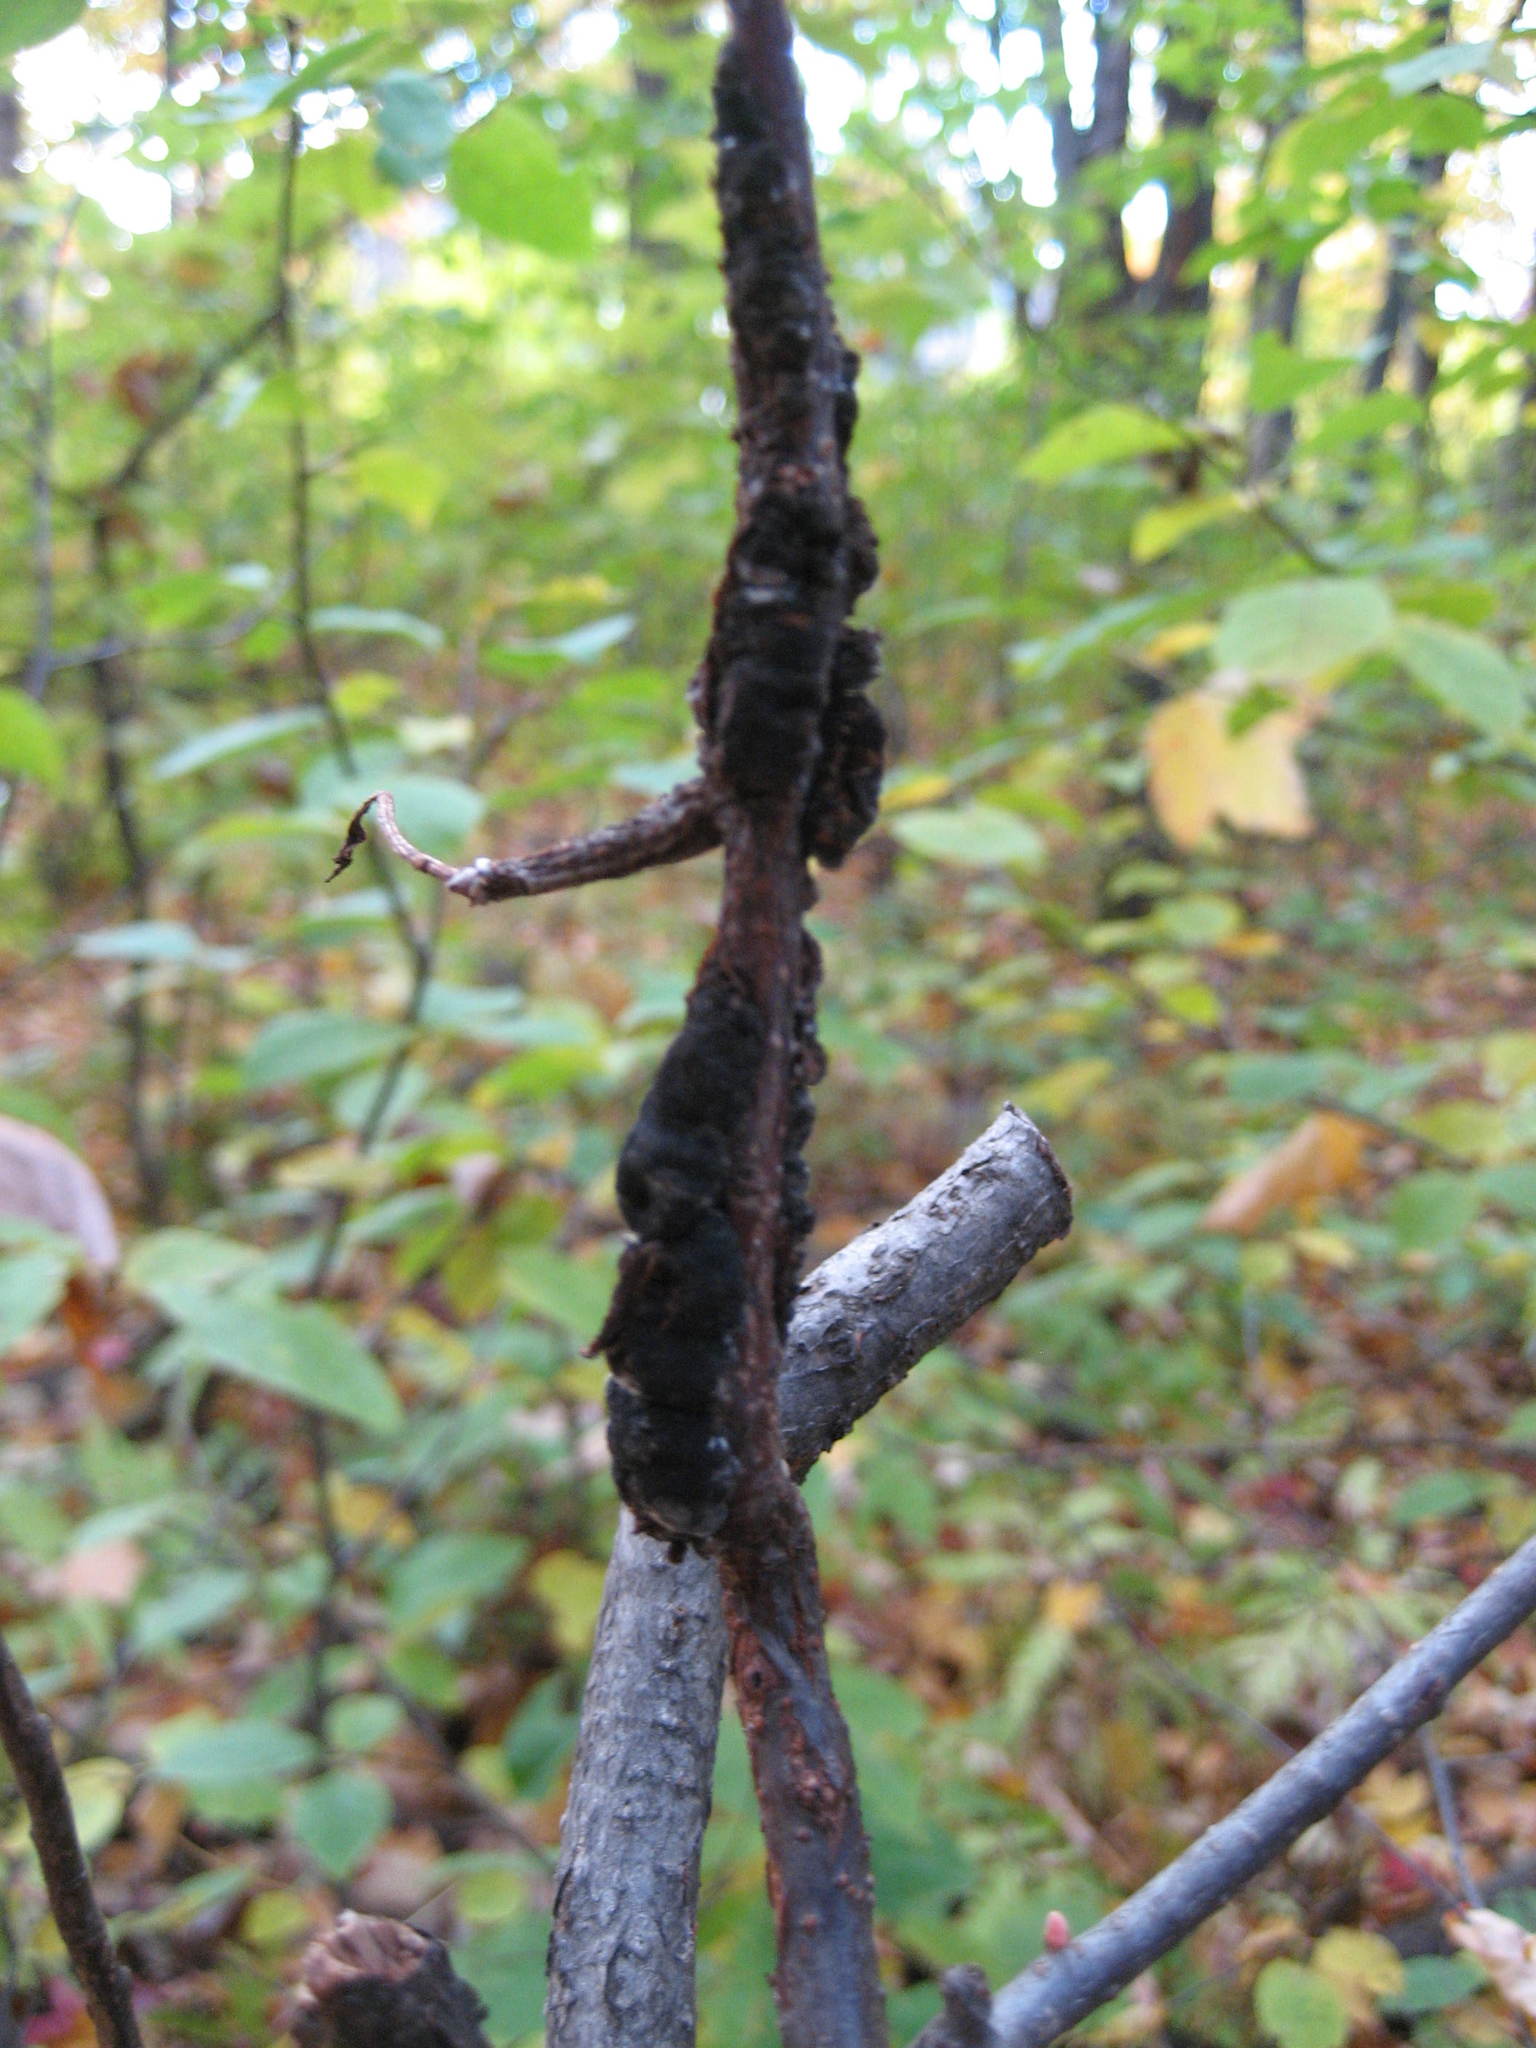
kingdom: Plantae
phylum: Tracheophyta
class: Magnoliopsida
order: Rosales
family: Rosaceae
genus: Prunus
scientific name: Prunus virginiana
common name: Chokecherry
